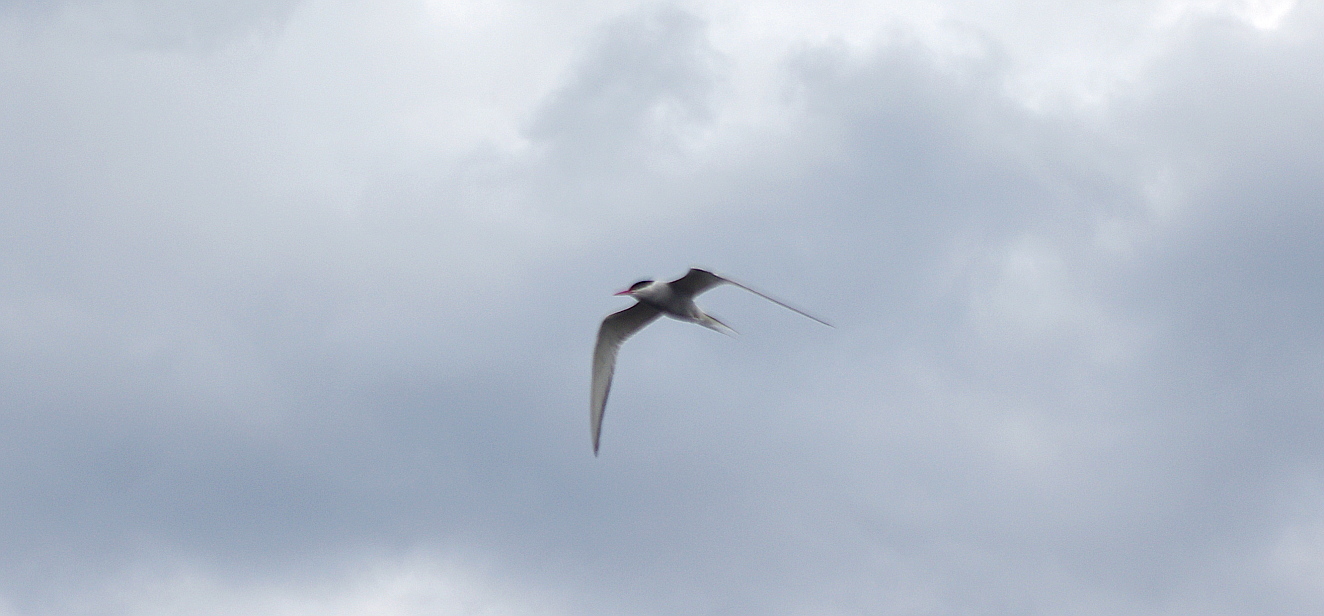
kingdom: Animalia
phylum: Chordata
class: Aves
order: Charadriiformes
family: Laridae
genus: Sterna
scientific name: Sterna paradisaea
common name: Arctic tern
